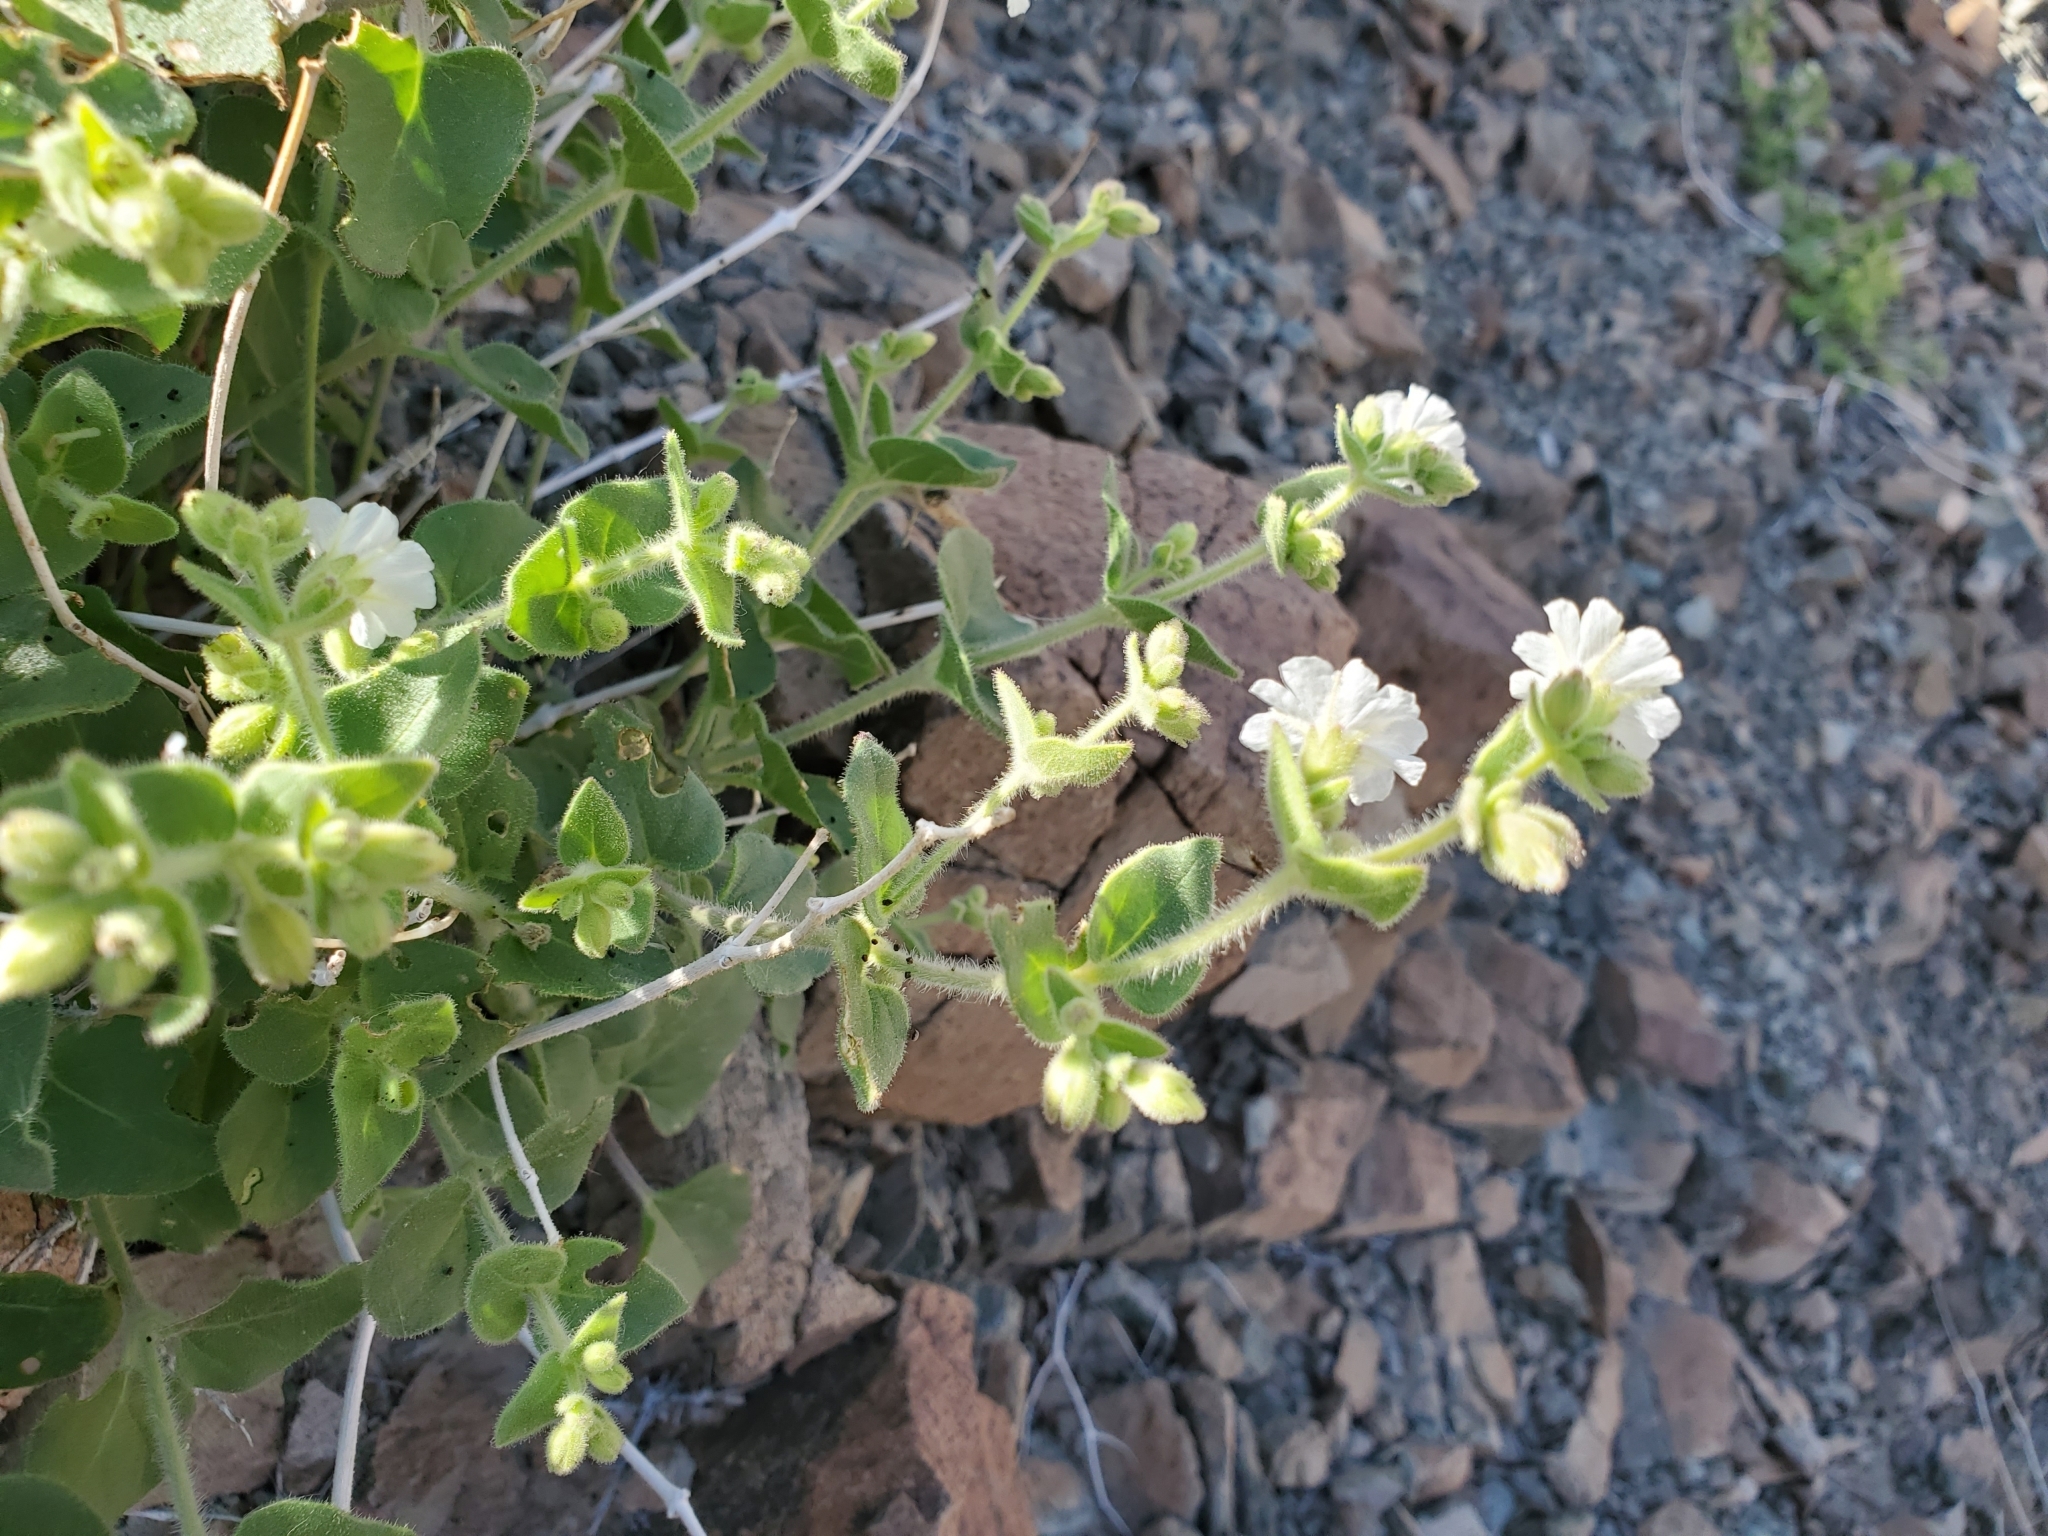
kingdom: Plantae
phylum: Tracheophyta
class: Magnoliopsida
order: Caryophyllales
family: Nyctaginaceae
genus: Mirabilis
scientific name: Mirabilis laevis
